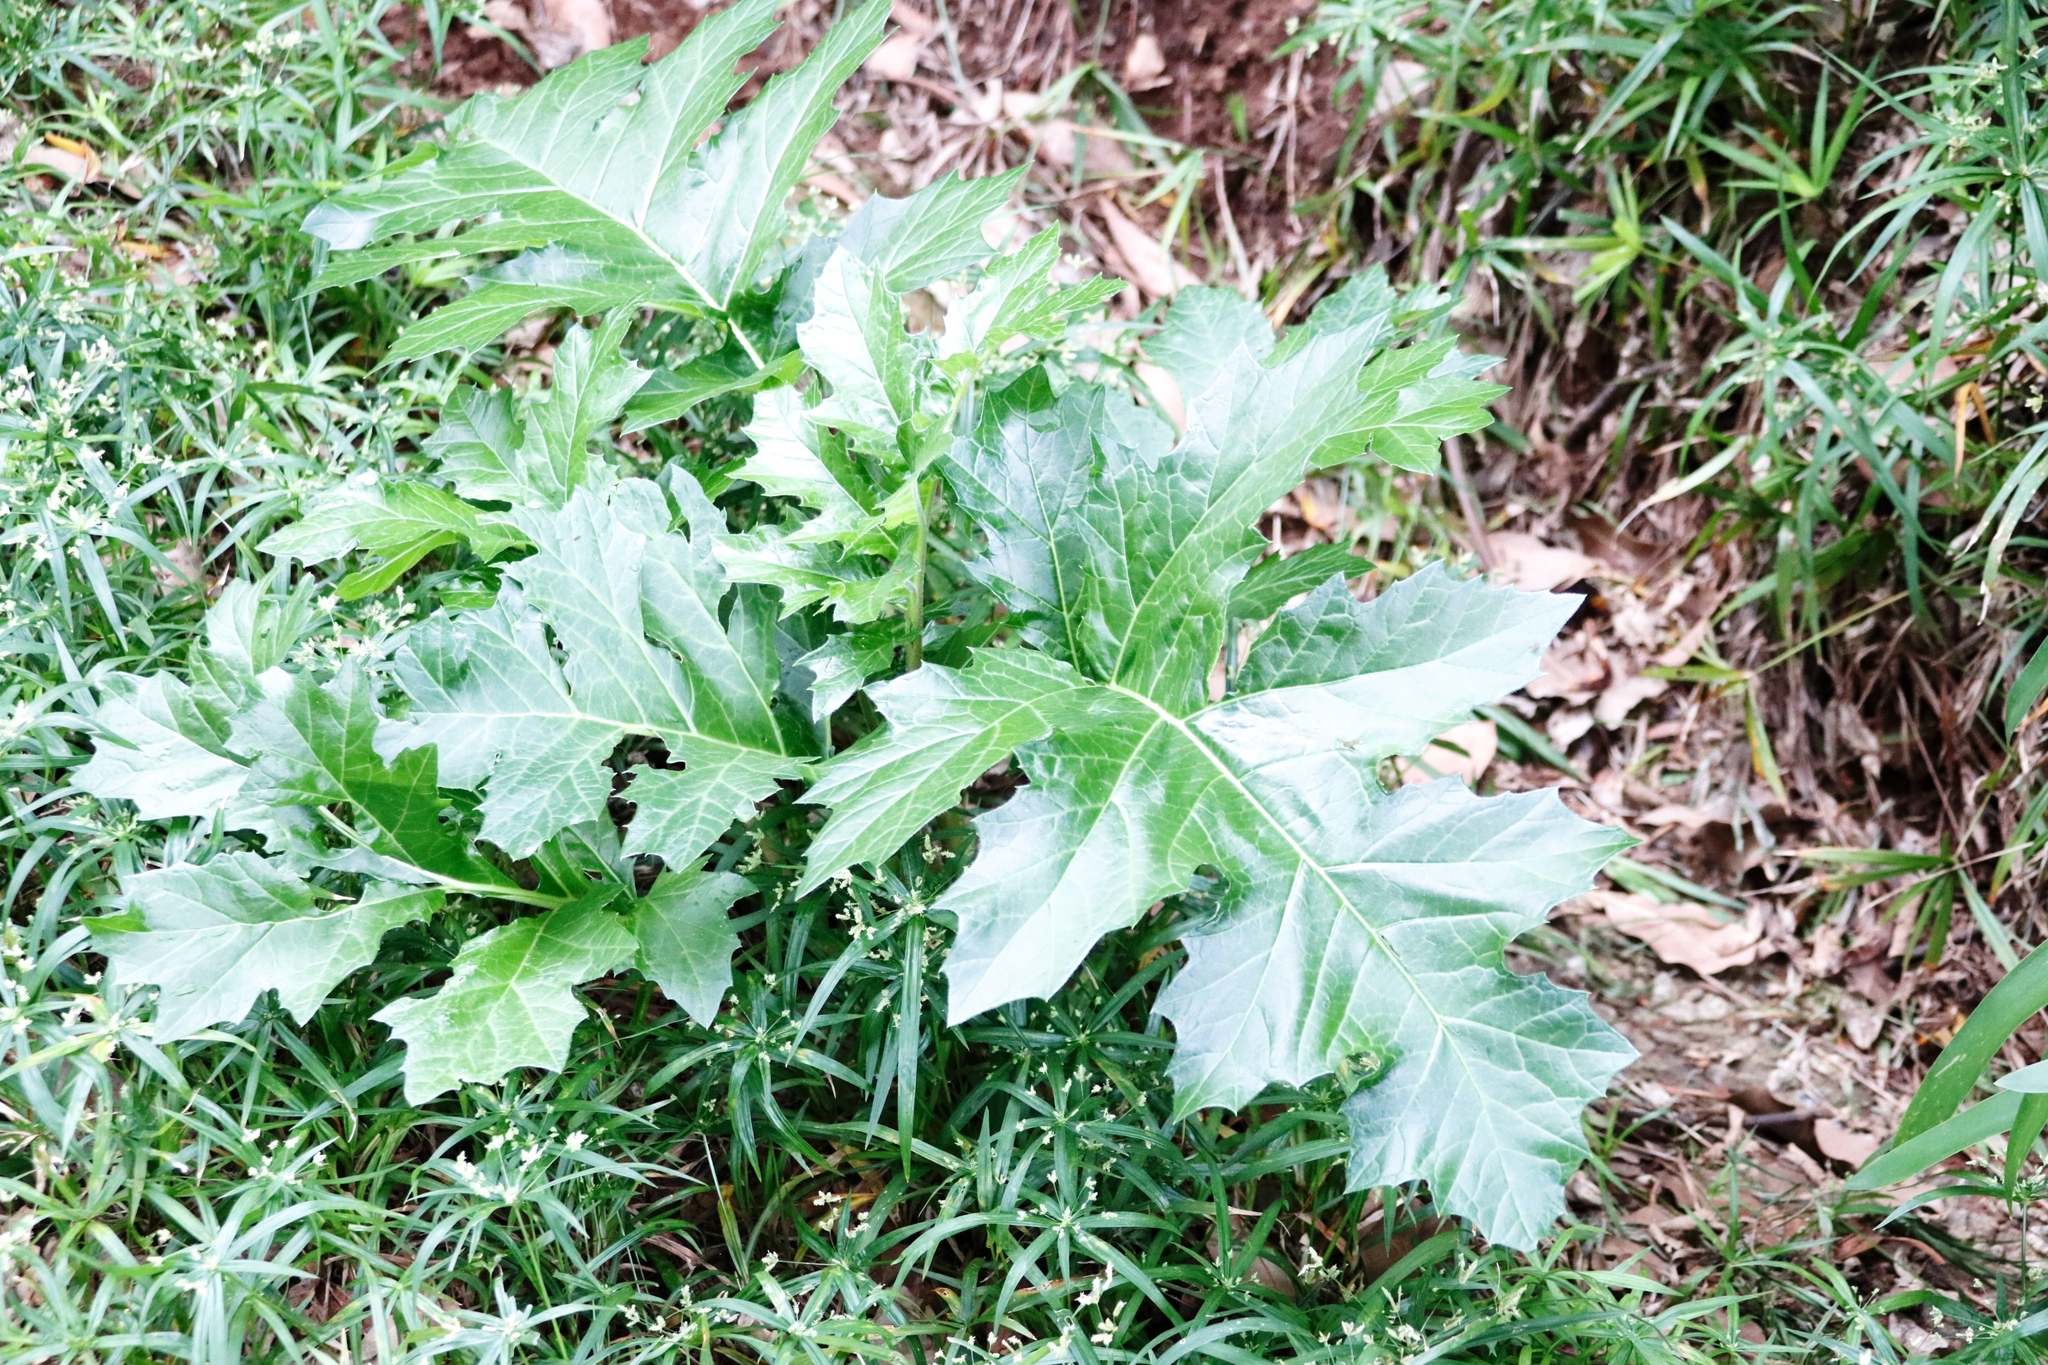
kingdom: Plantae
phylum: Tracheophyta
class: Magnoliopsida
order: Lamiales
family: Acanthaceae
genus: Acanthus
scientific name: Acanthus mollis
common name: Bear's-breech
